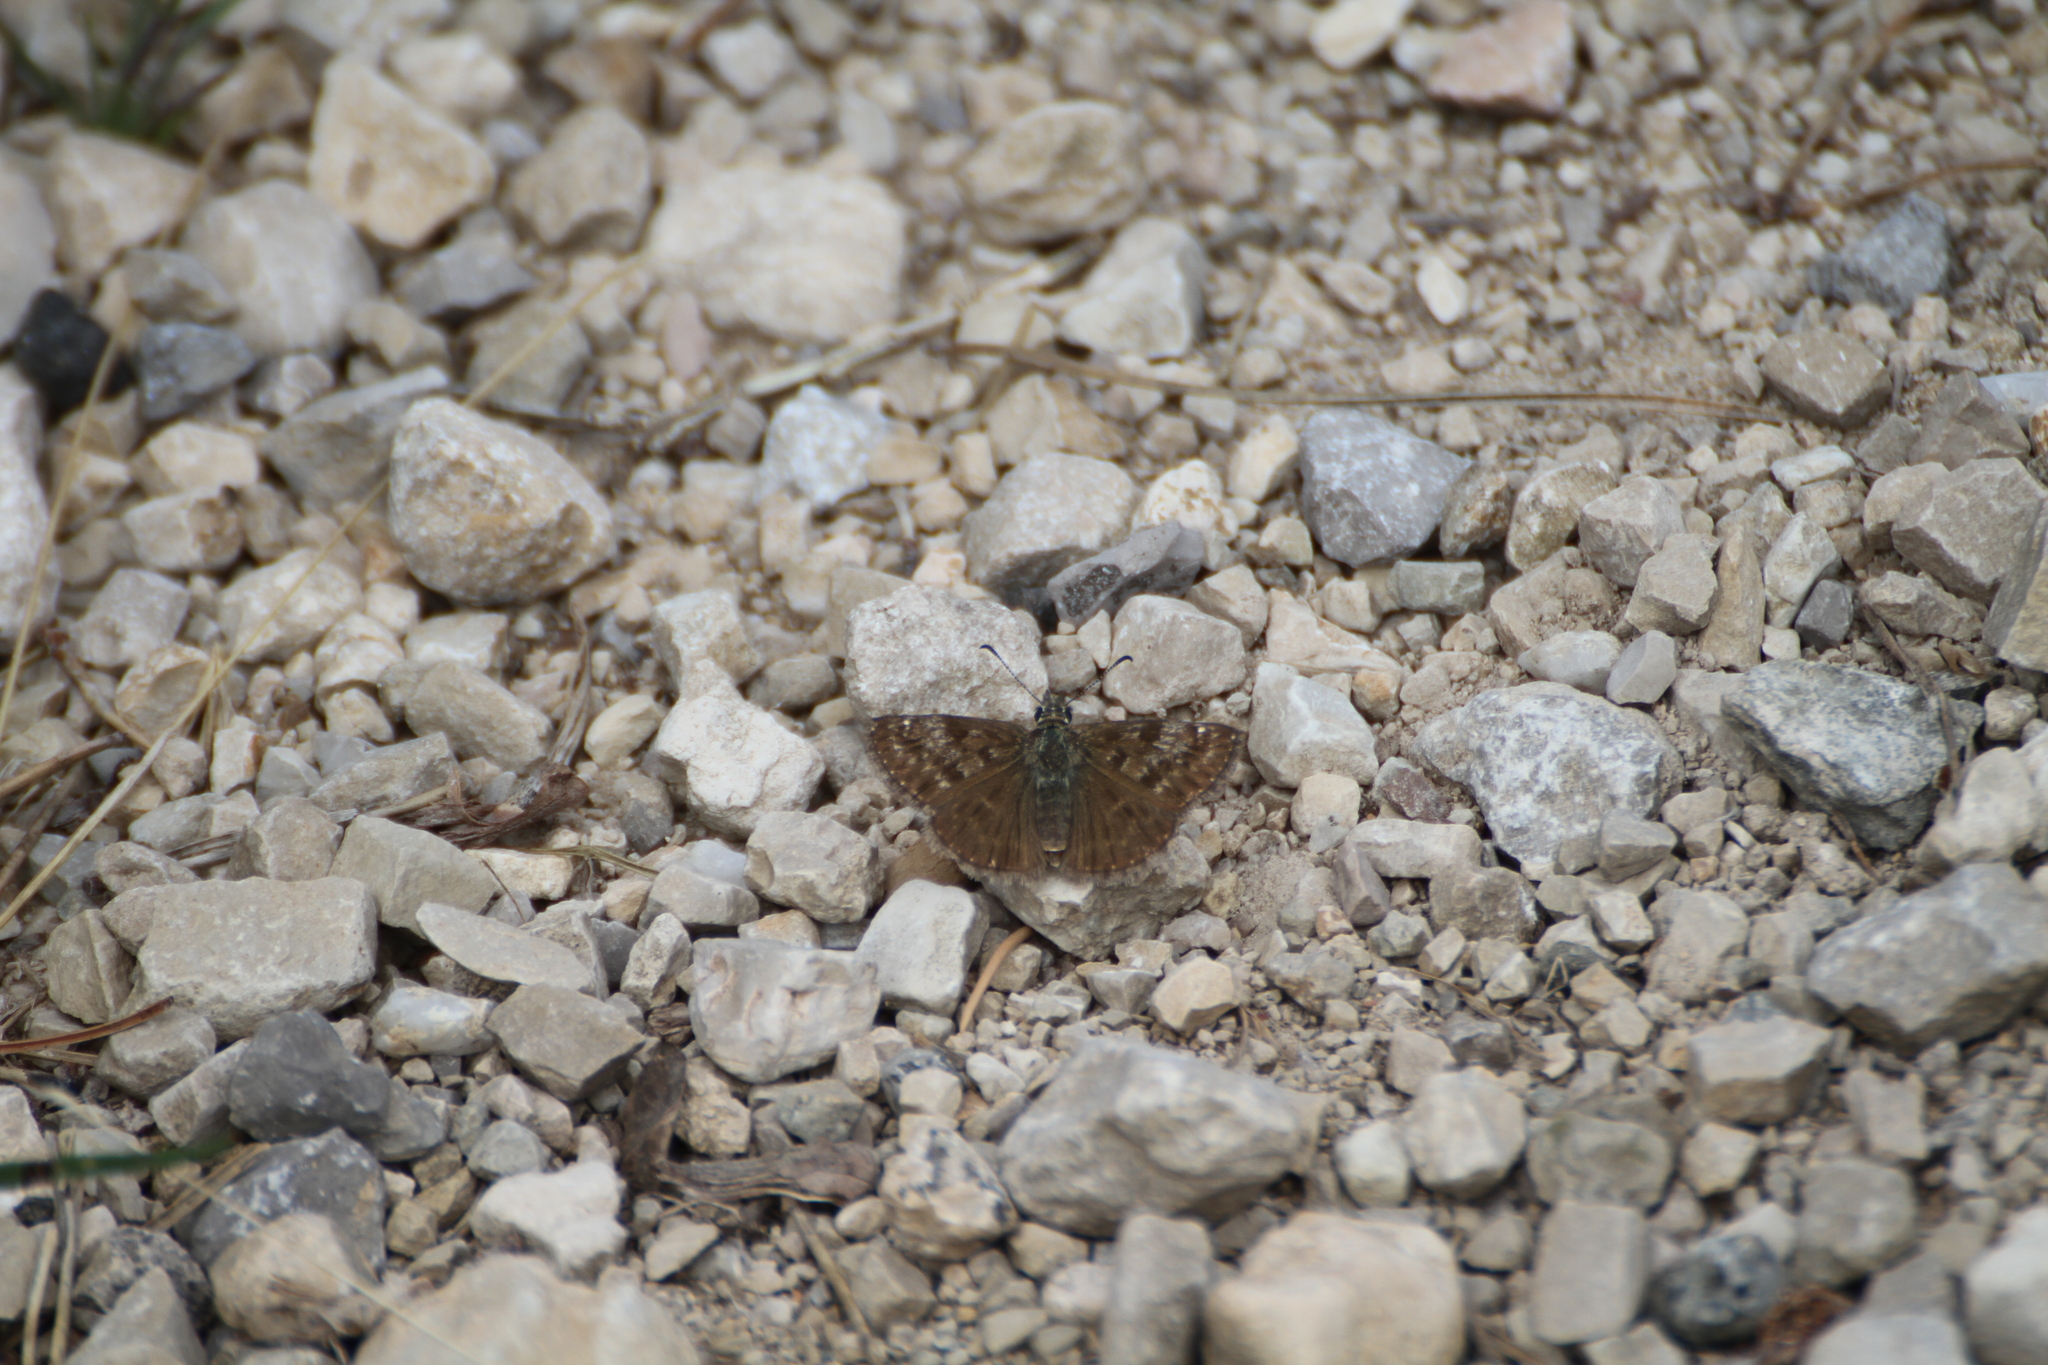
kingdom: Animalia
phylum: Arthropoda
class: Insecta
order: Lepidoptera
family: Hesperiidae
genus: Erynnis
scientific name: Erynnis tages
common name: Dingy skipper
